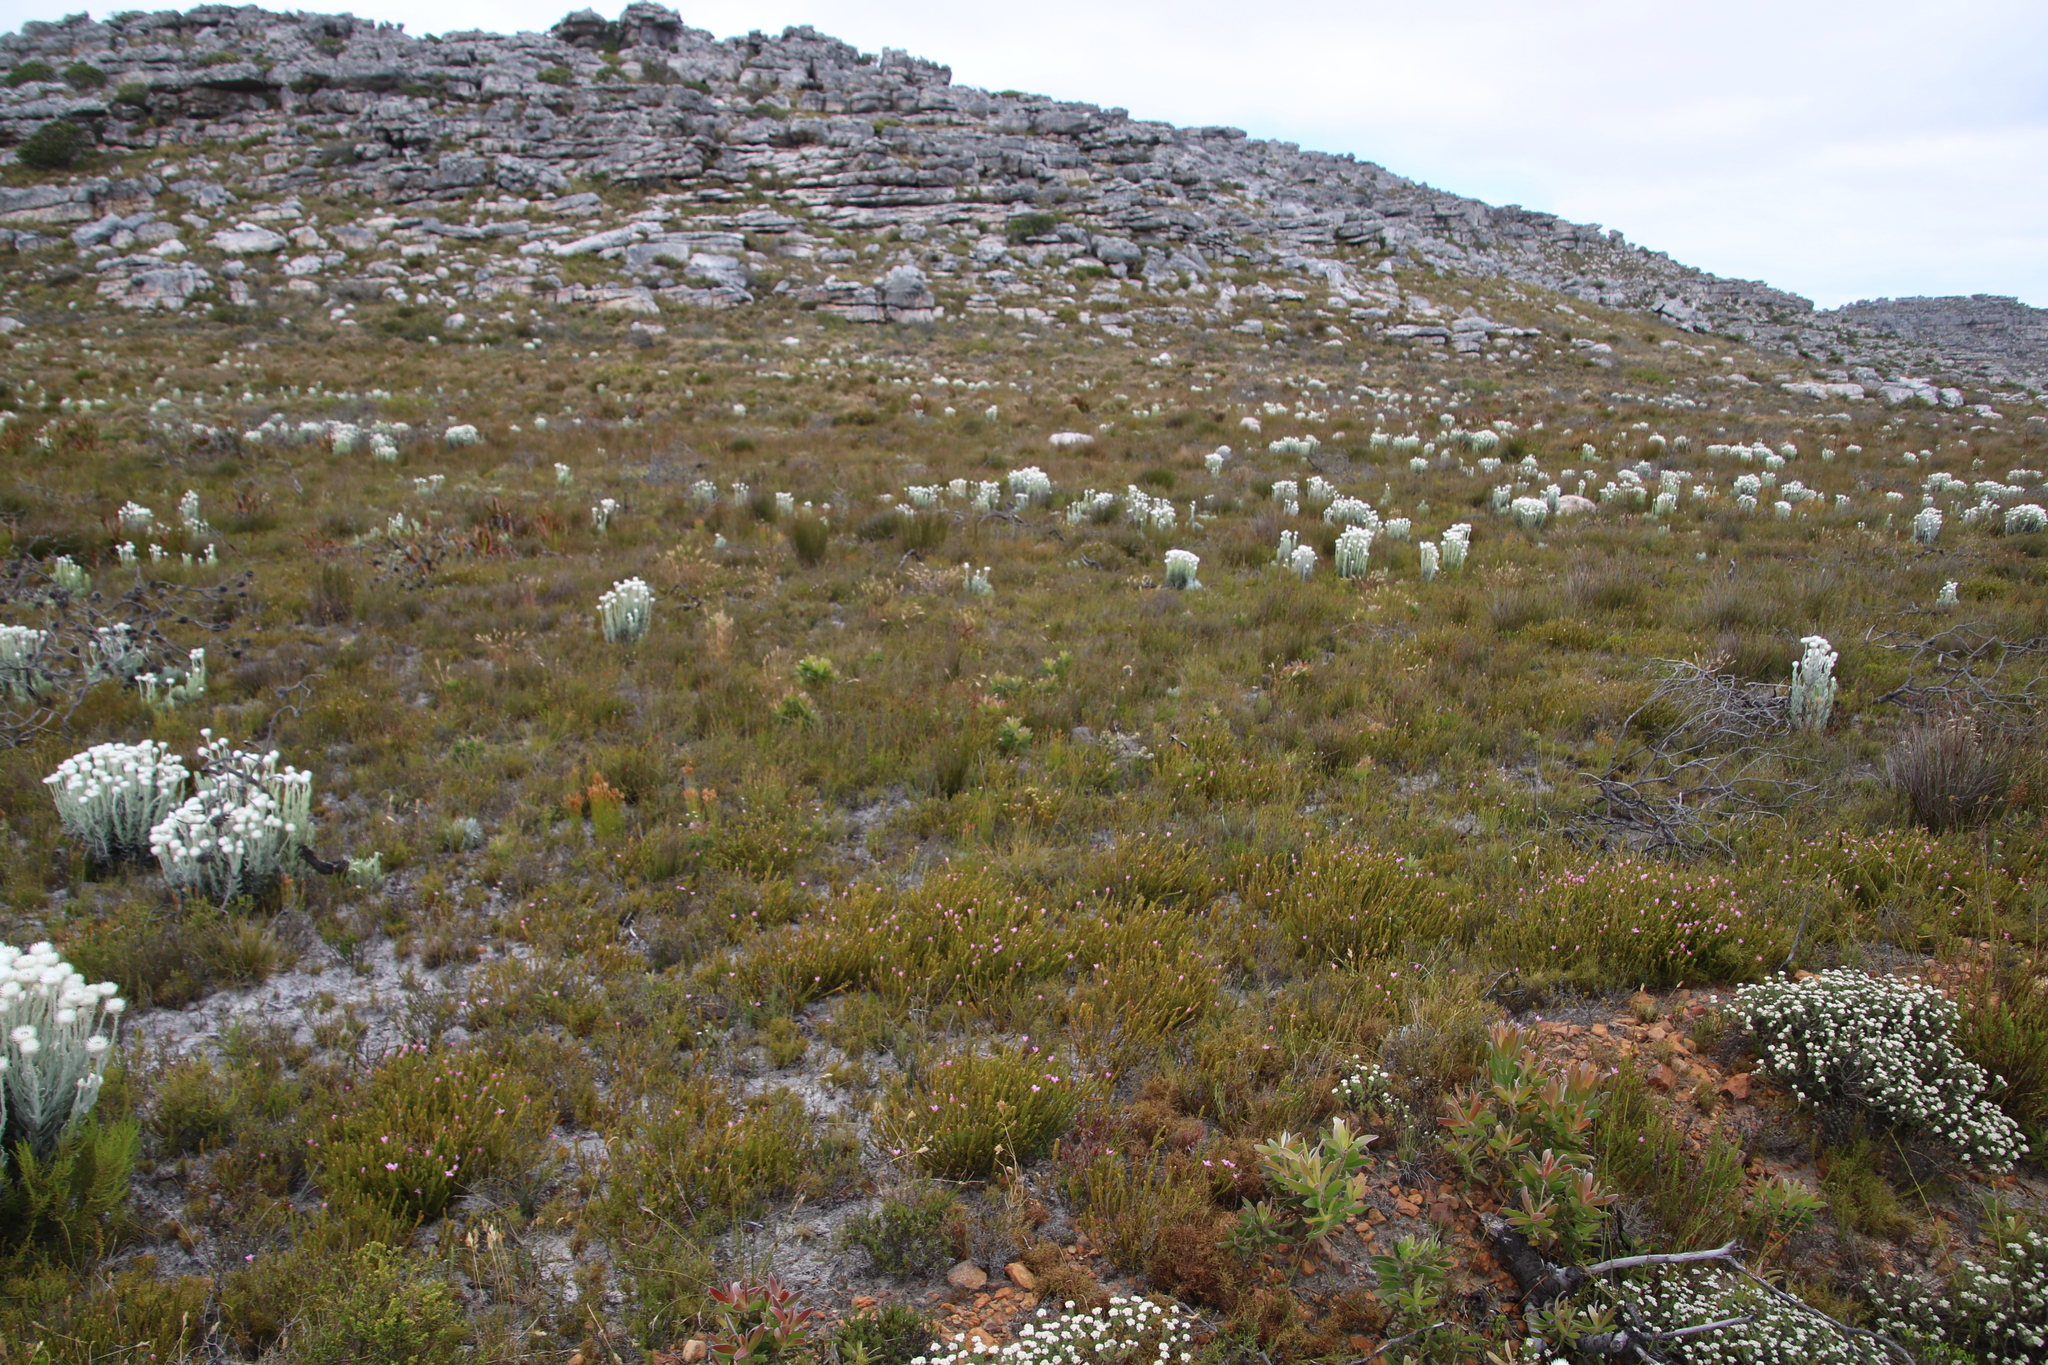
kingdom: Plantae
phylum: Tracheophyta
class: Magnoliopsida
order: Malvales
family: Thymelaeaceae
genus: Lachnaea
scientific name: Lachnaea grandiflora
